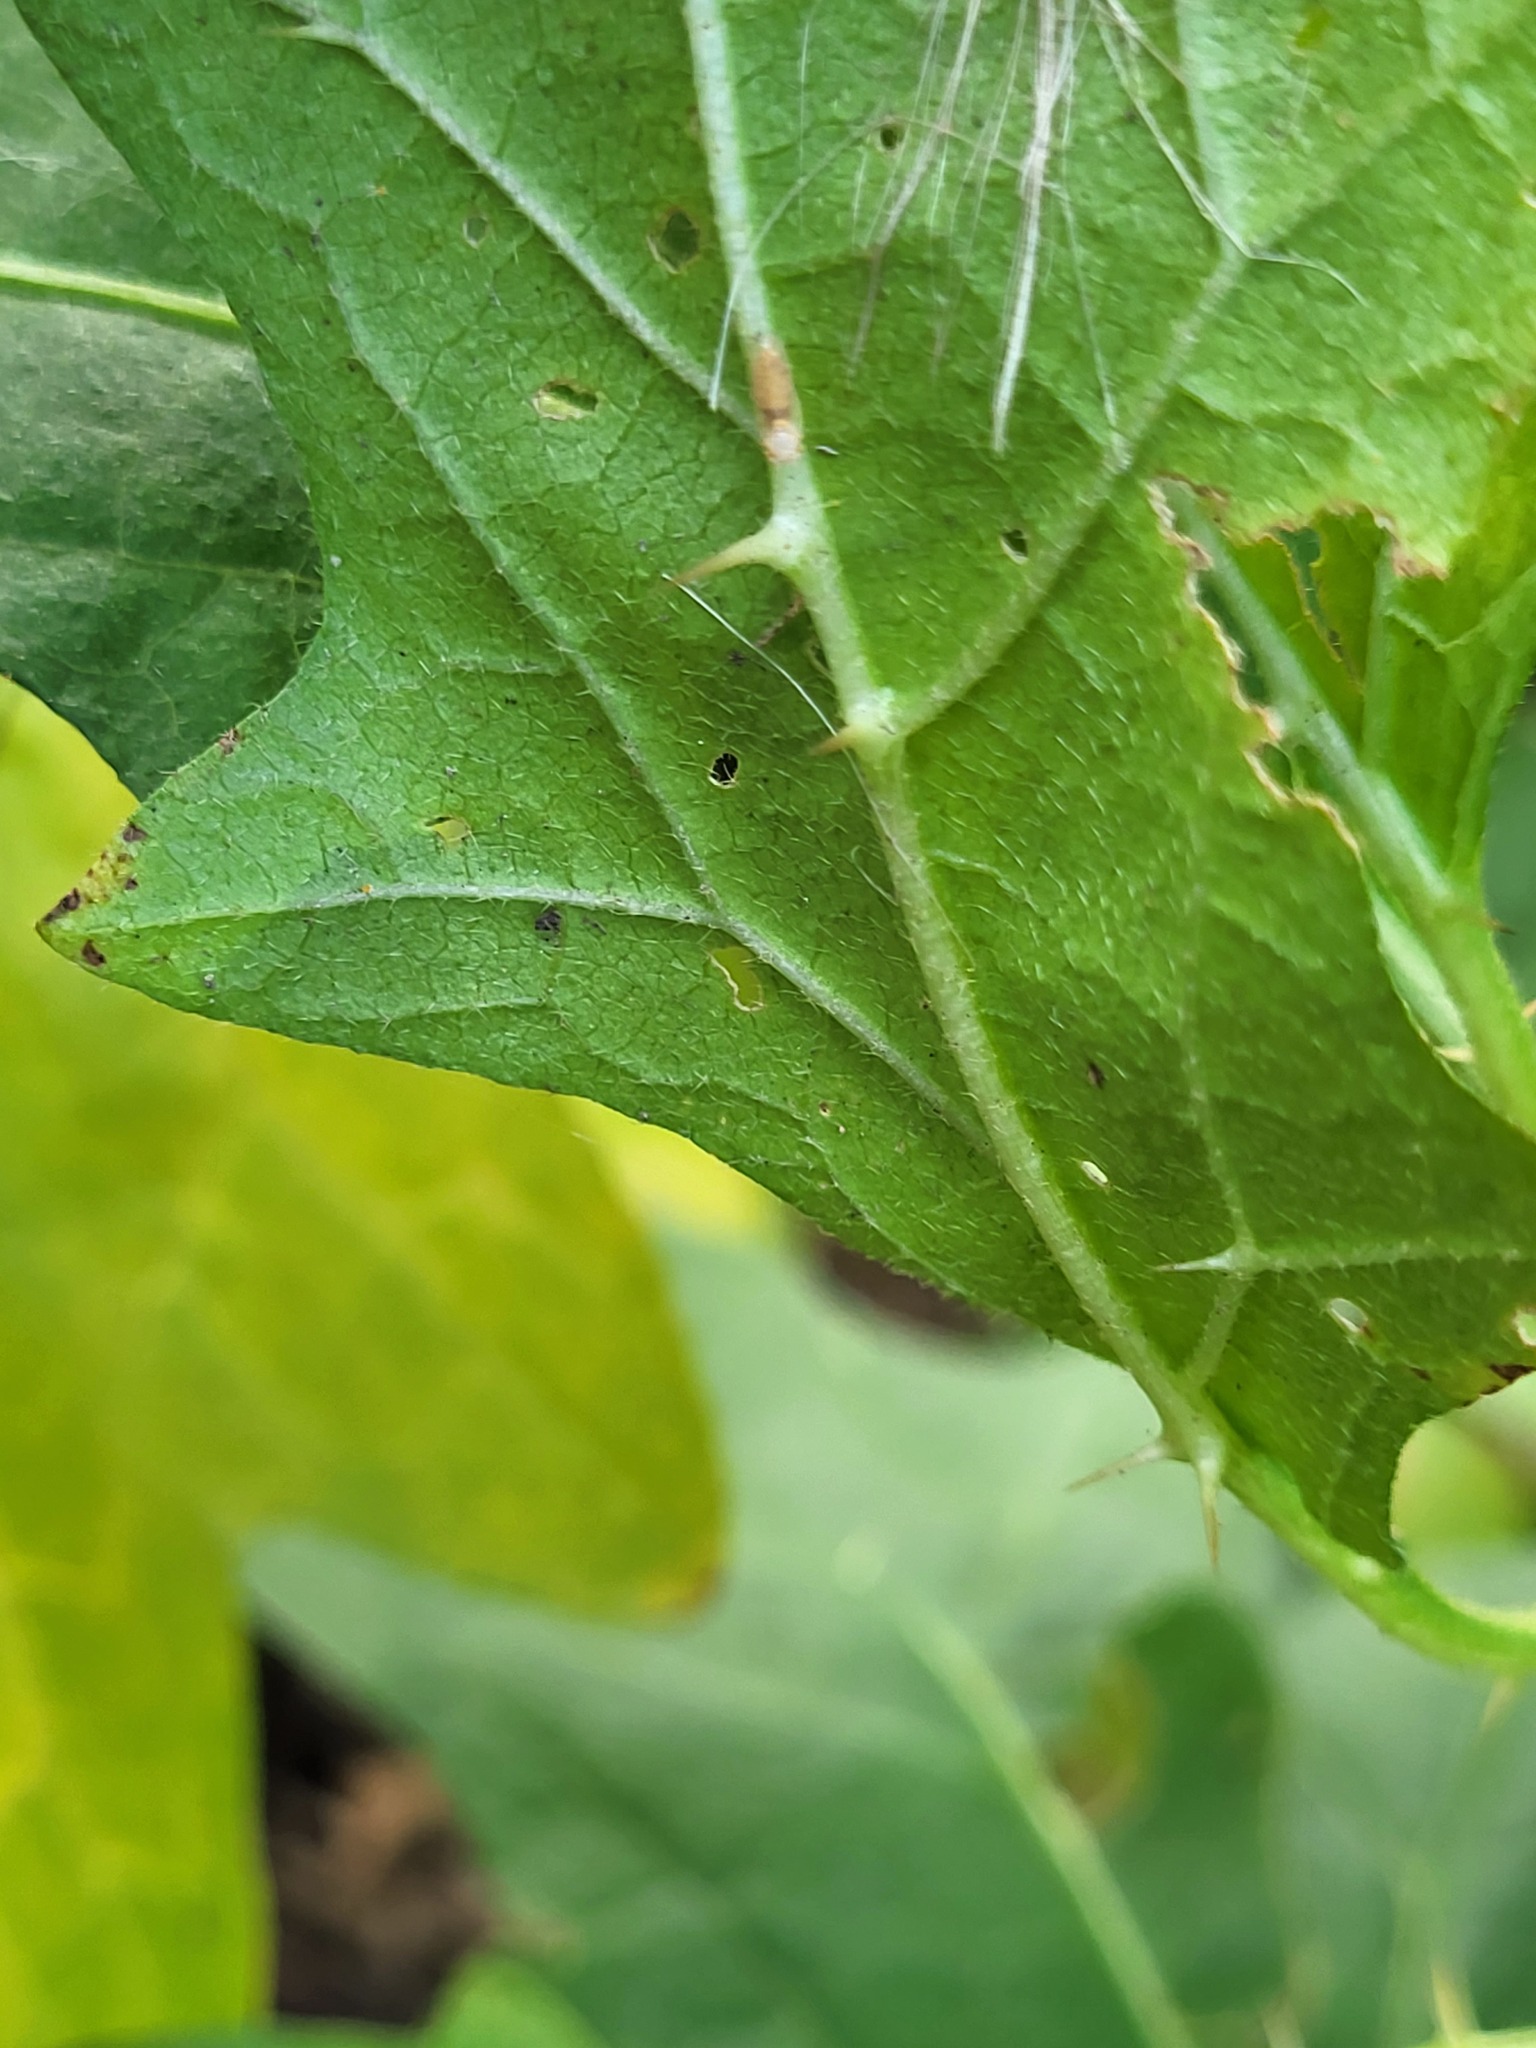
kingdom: Plantae
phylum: Tracheophyta
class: Magnoliopsida
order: Solanales
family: Solanaceae
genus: Solanum
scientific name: Solanum carolinense
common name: Horse-nettle
